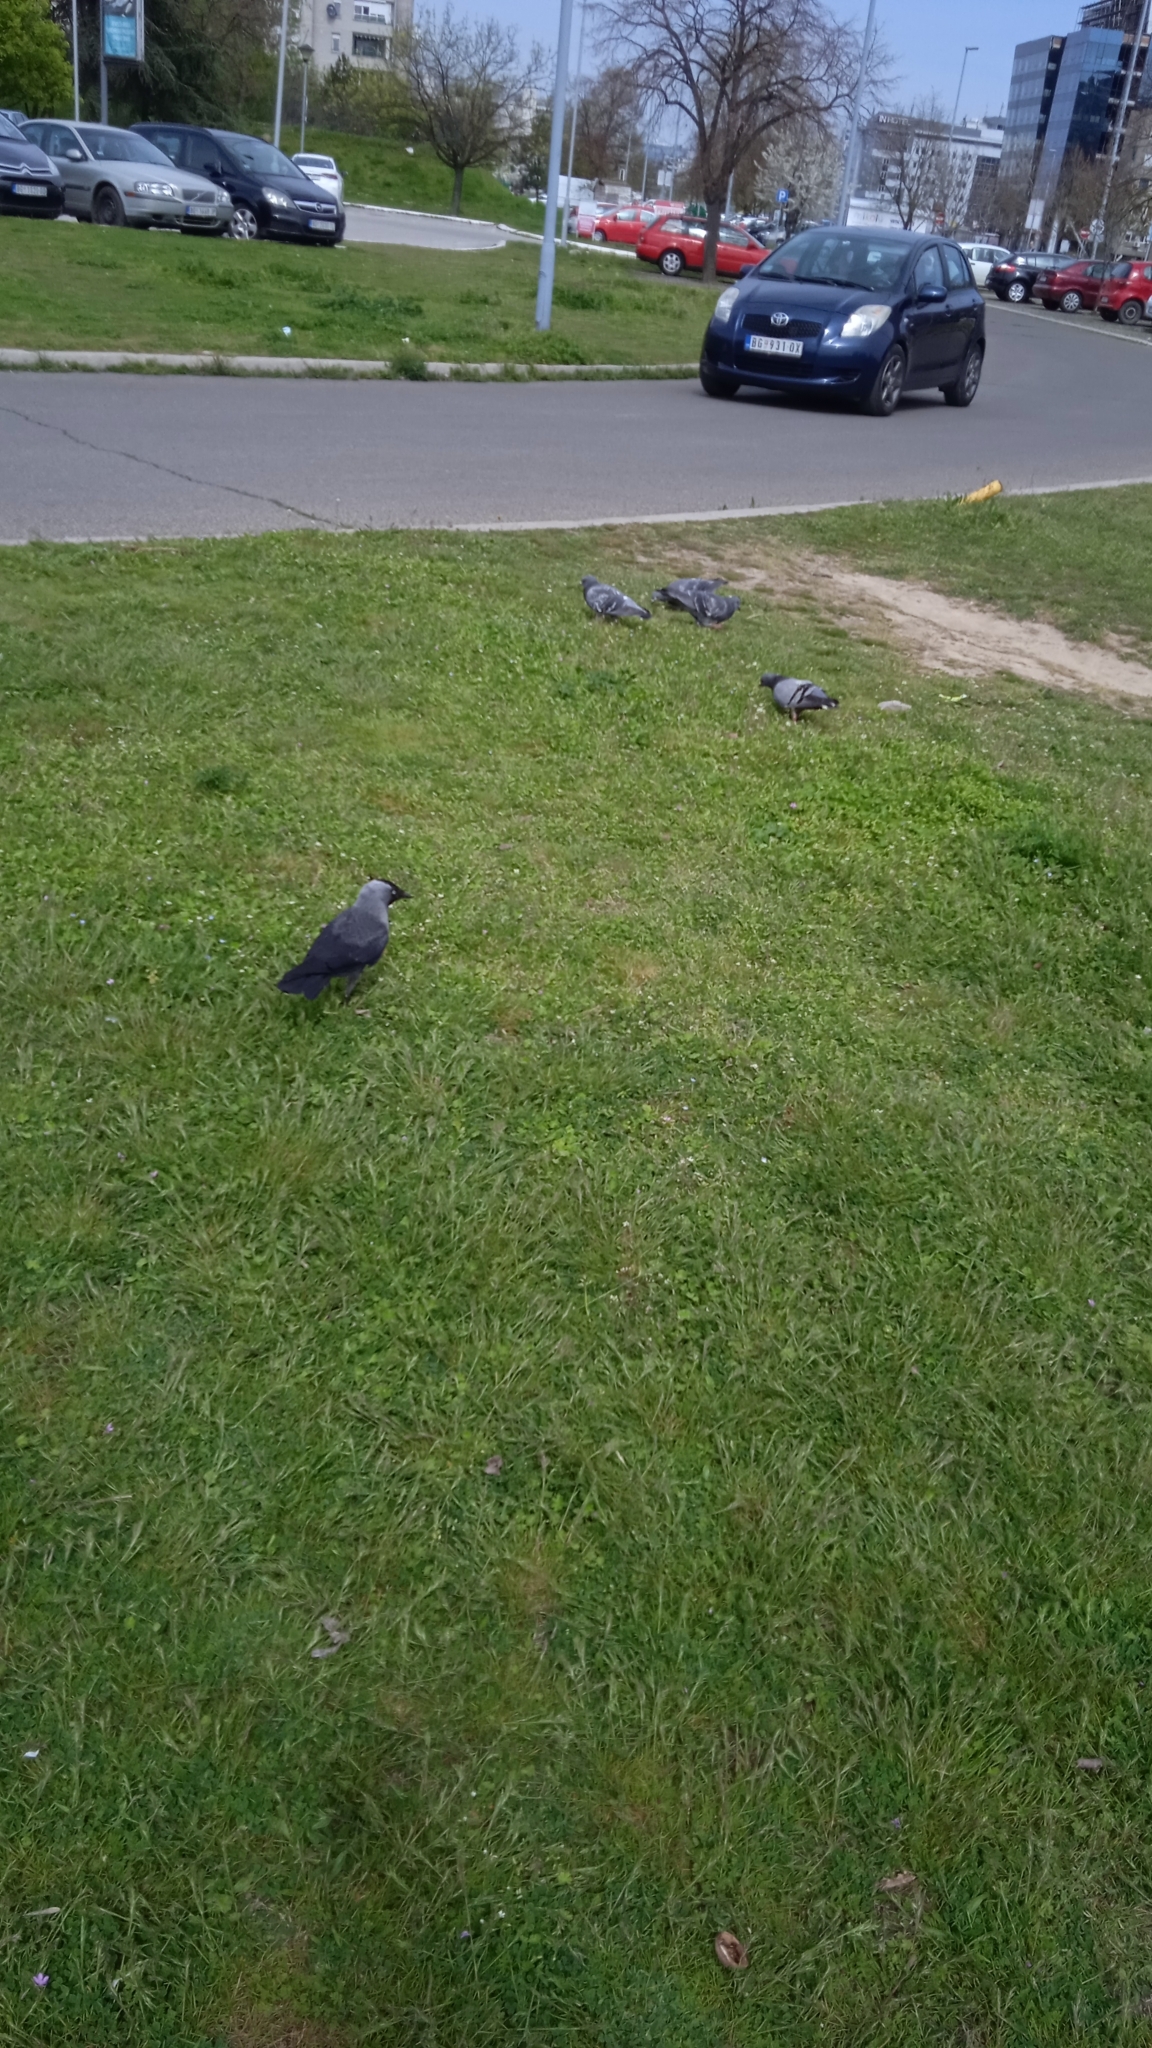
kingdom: Animalia
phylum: Chordata
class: Aves
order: Passeriformes
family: Corvidae
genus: Coloeus
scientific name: Coloeus monedula
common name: Western jackdaw
